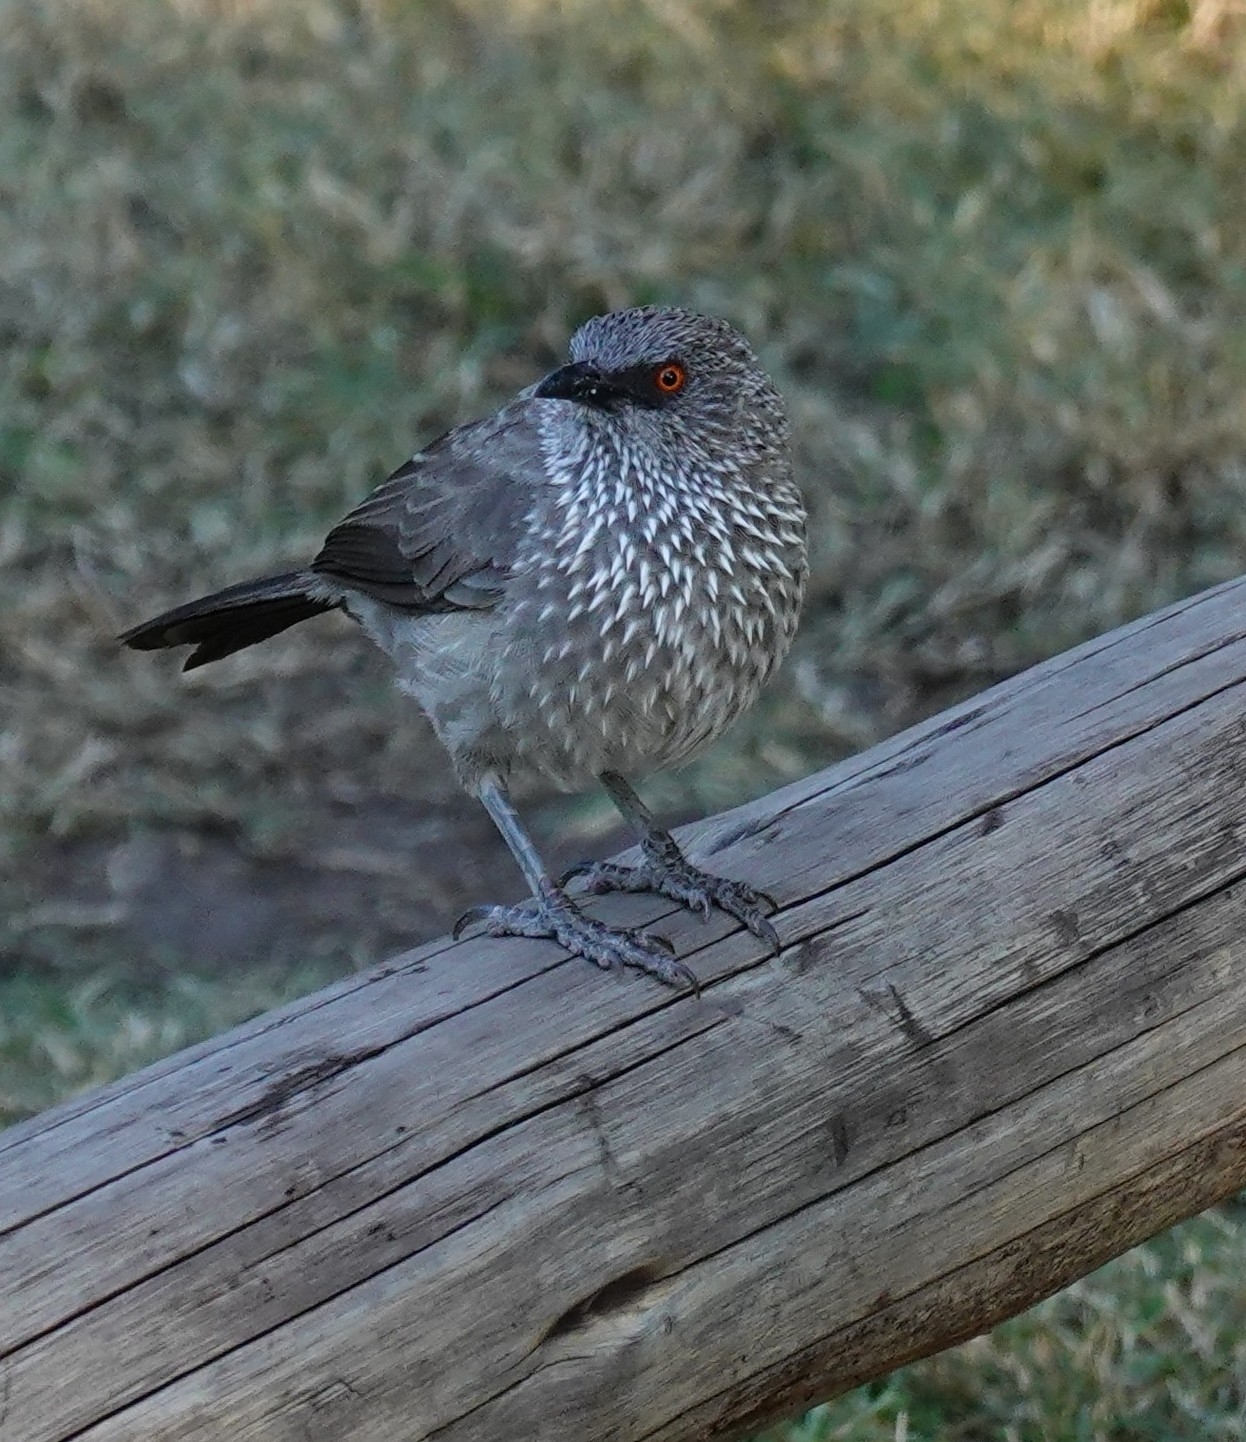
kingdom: Animalia
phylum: Chordata
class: Aves
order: Passeriformes
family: Leiothrichidae
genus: Turdoides
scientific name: Turdoides jardineii
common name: Arrow-marked babbler
